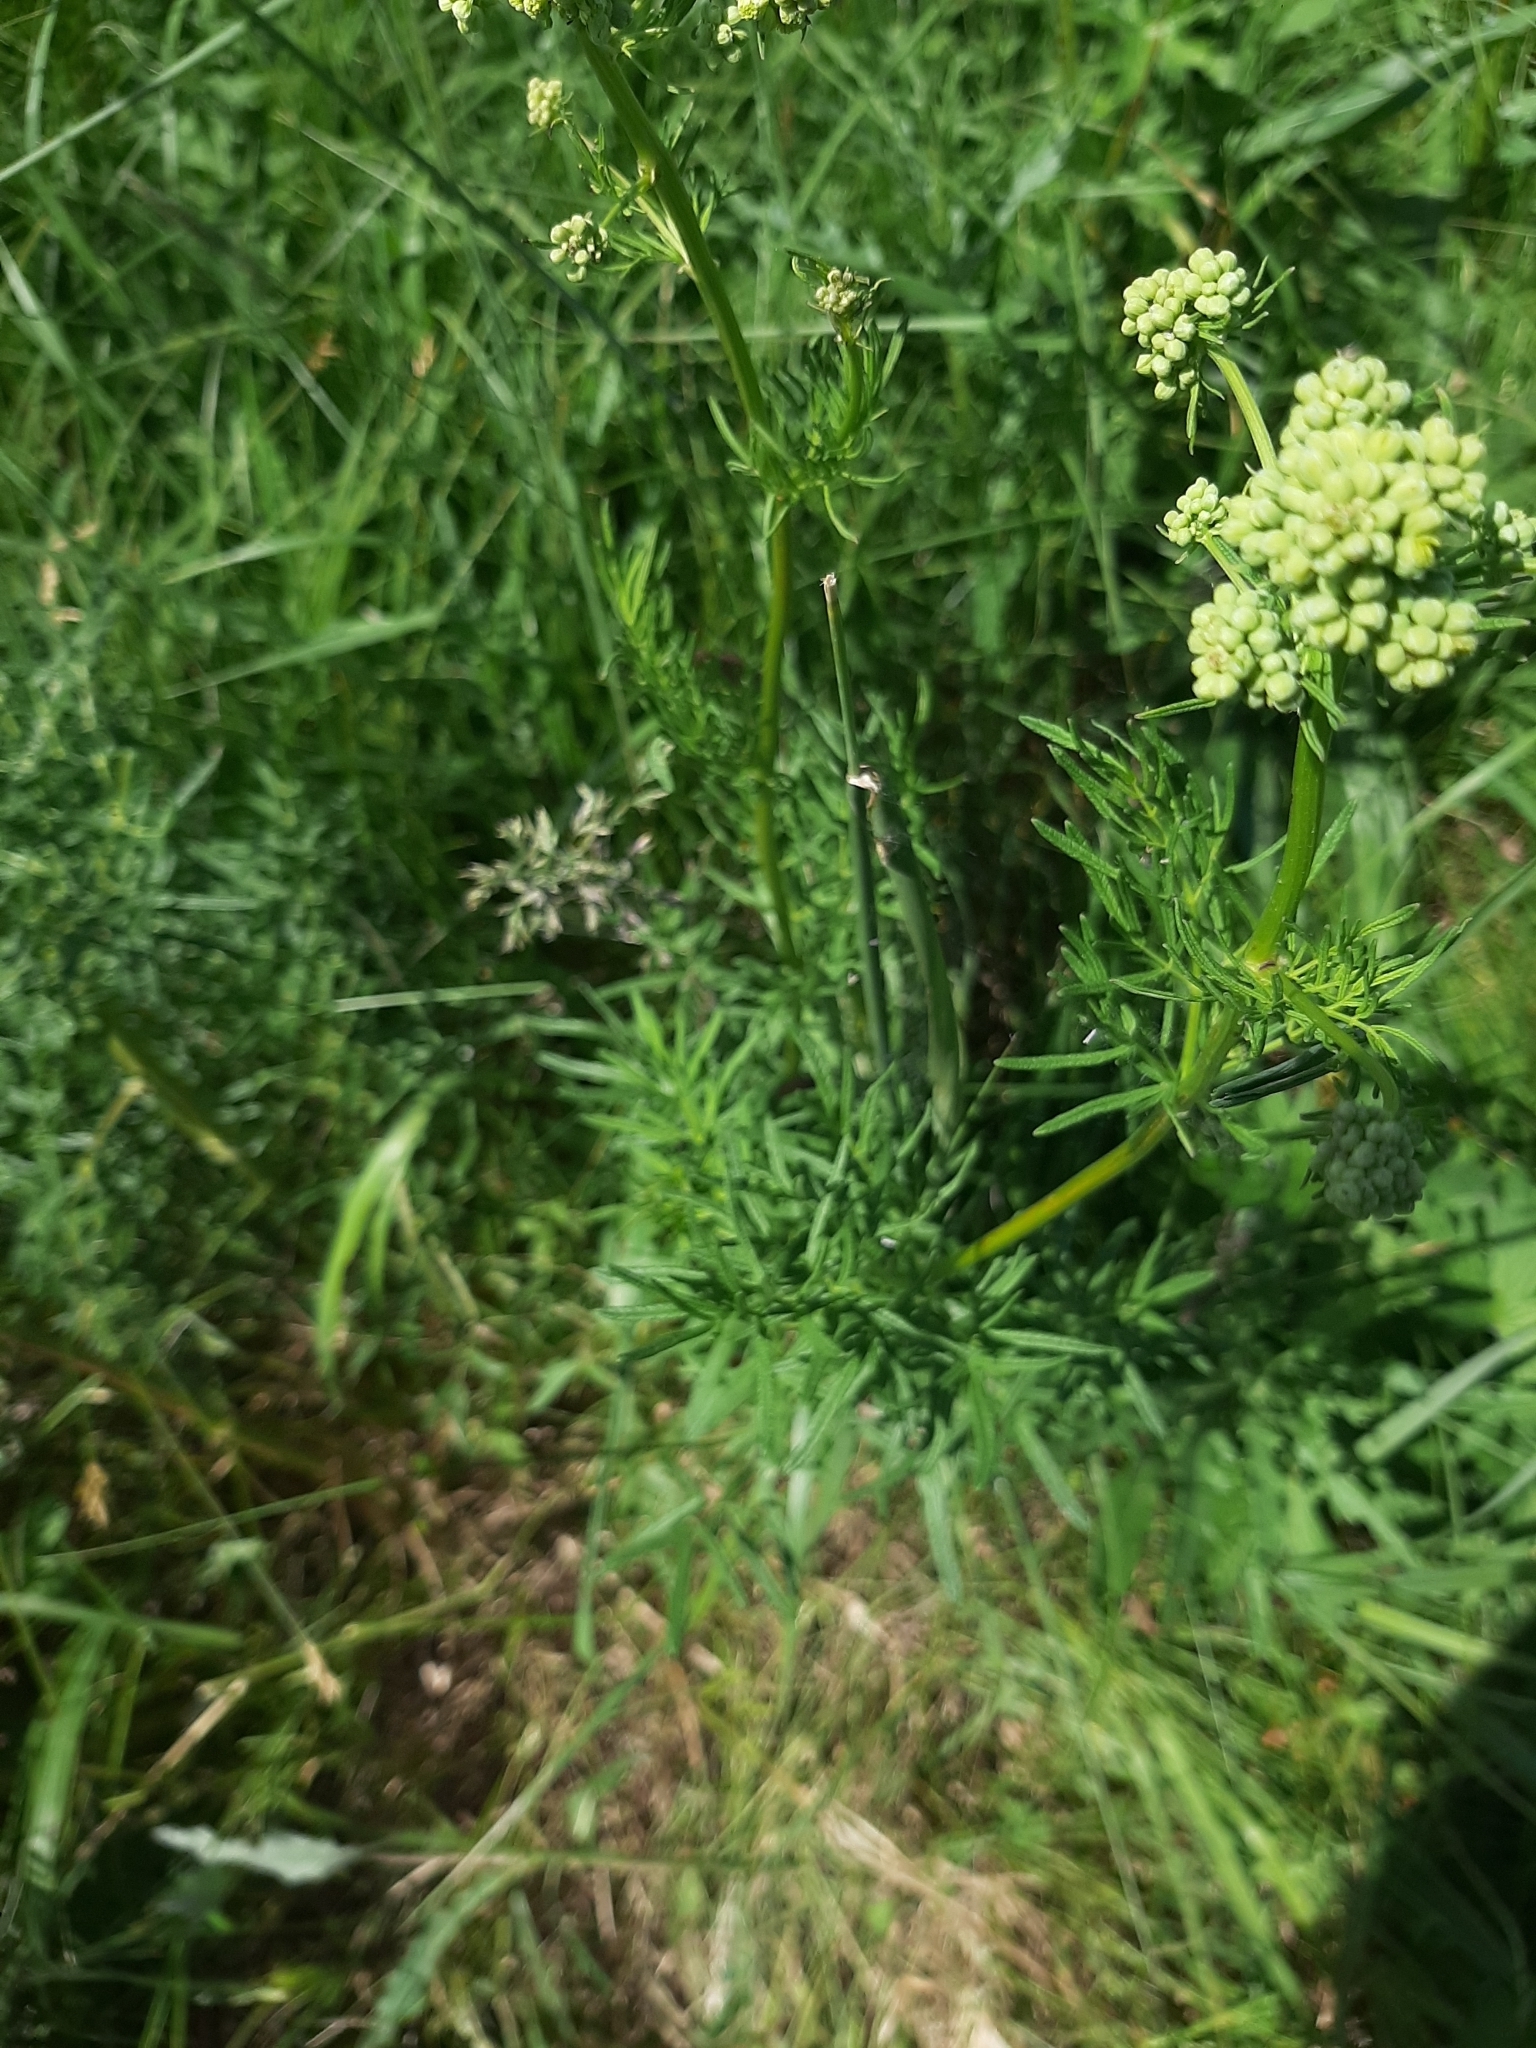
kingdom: Plantae
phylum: Tracheophyta
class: Magnoliopsida
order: Ranunculales
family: Ranunculaceae
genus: Thalictrum
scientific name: Thalictrum lucidum
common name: Shining meadow-rue
